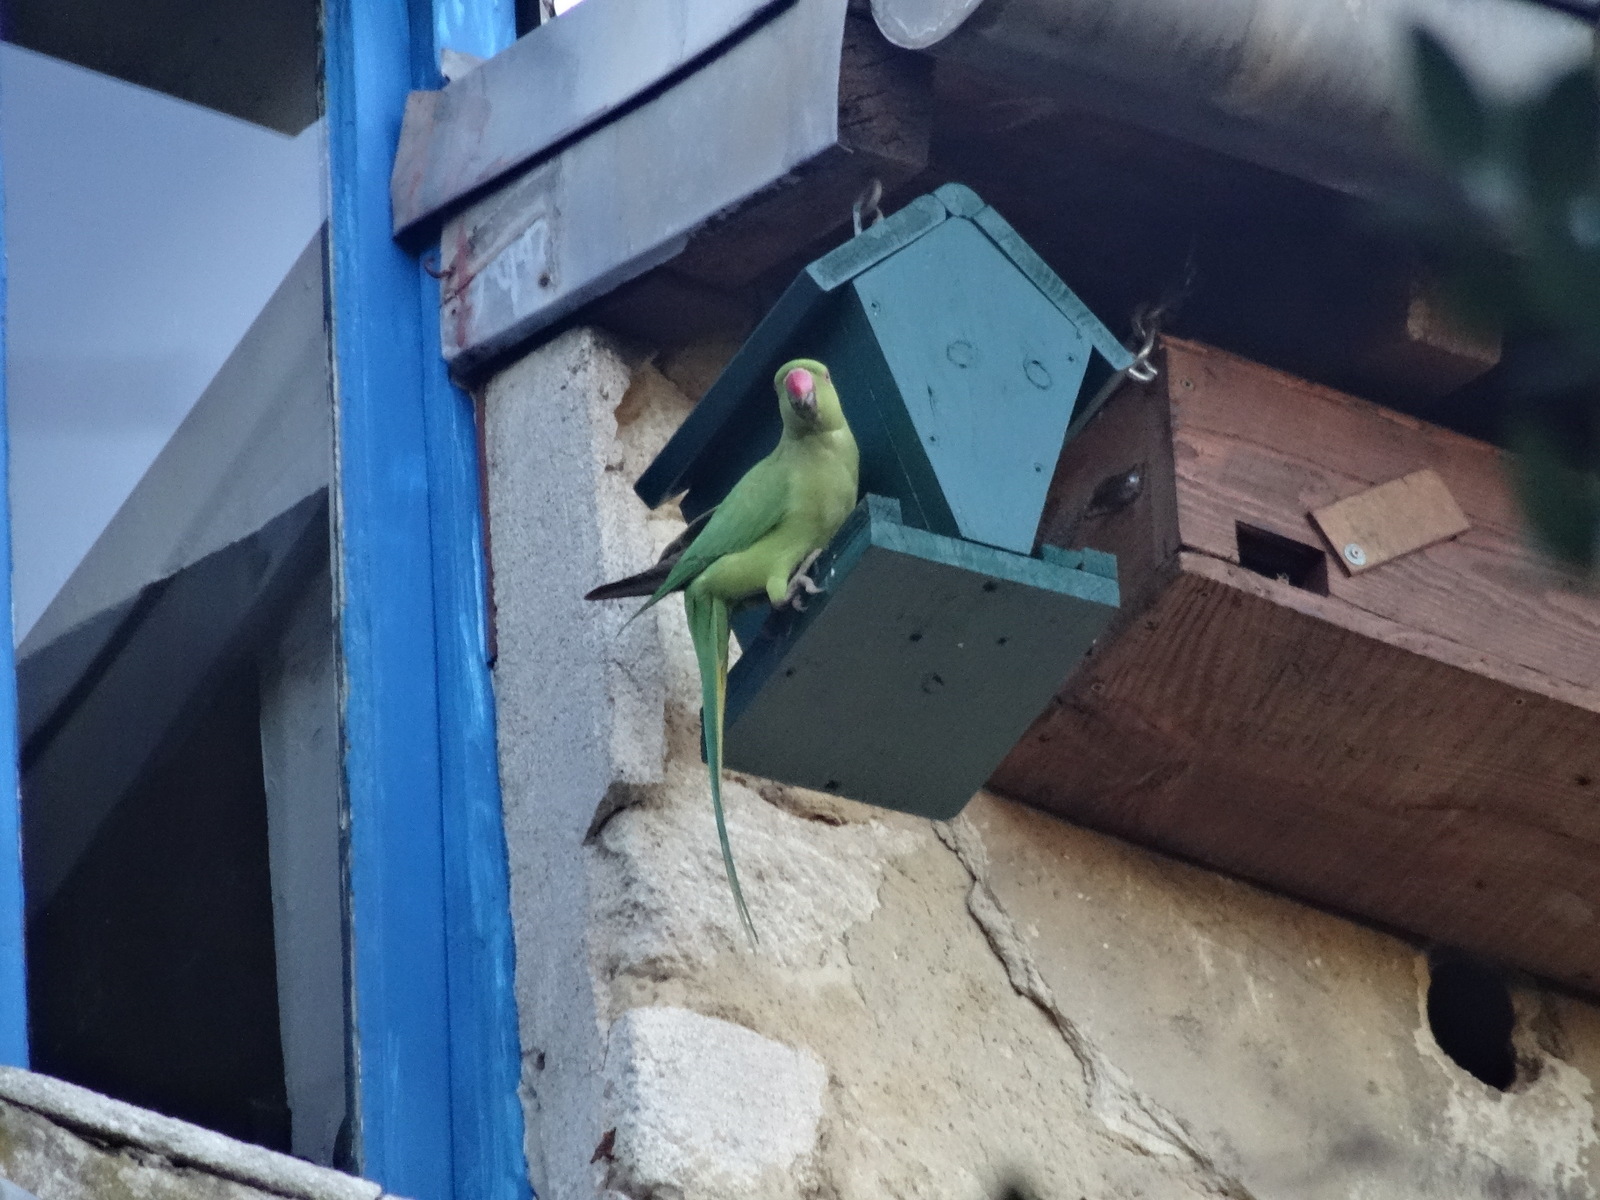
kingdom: Animalia
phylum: Chordata
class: Aves
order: Psittaciformes
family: Psittacidae
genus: Psittacula
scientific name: Psittacula krameri
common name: Rose-ringed parakeet
